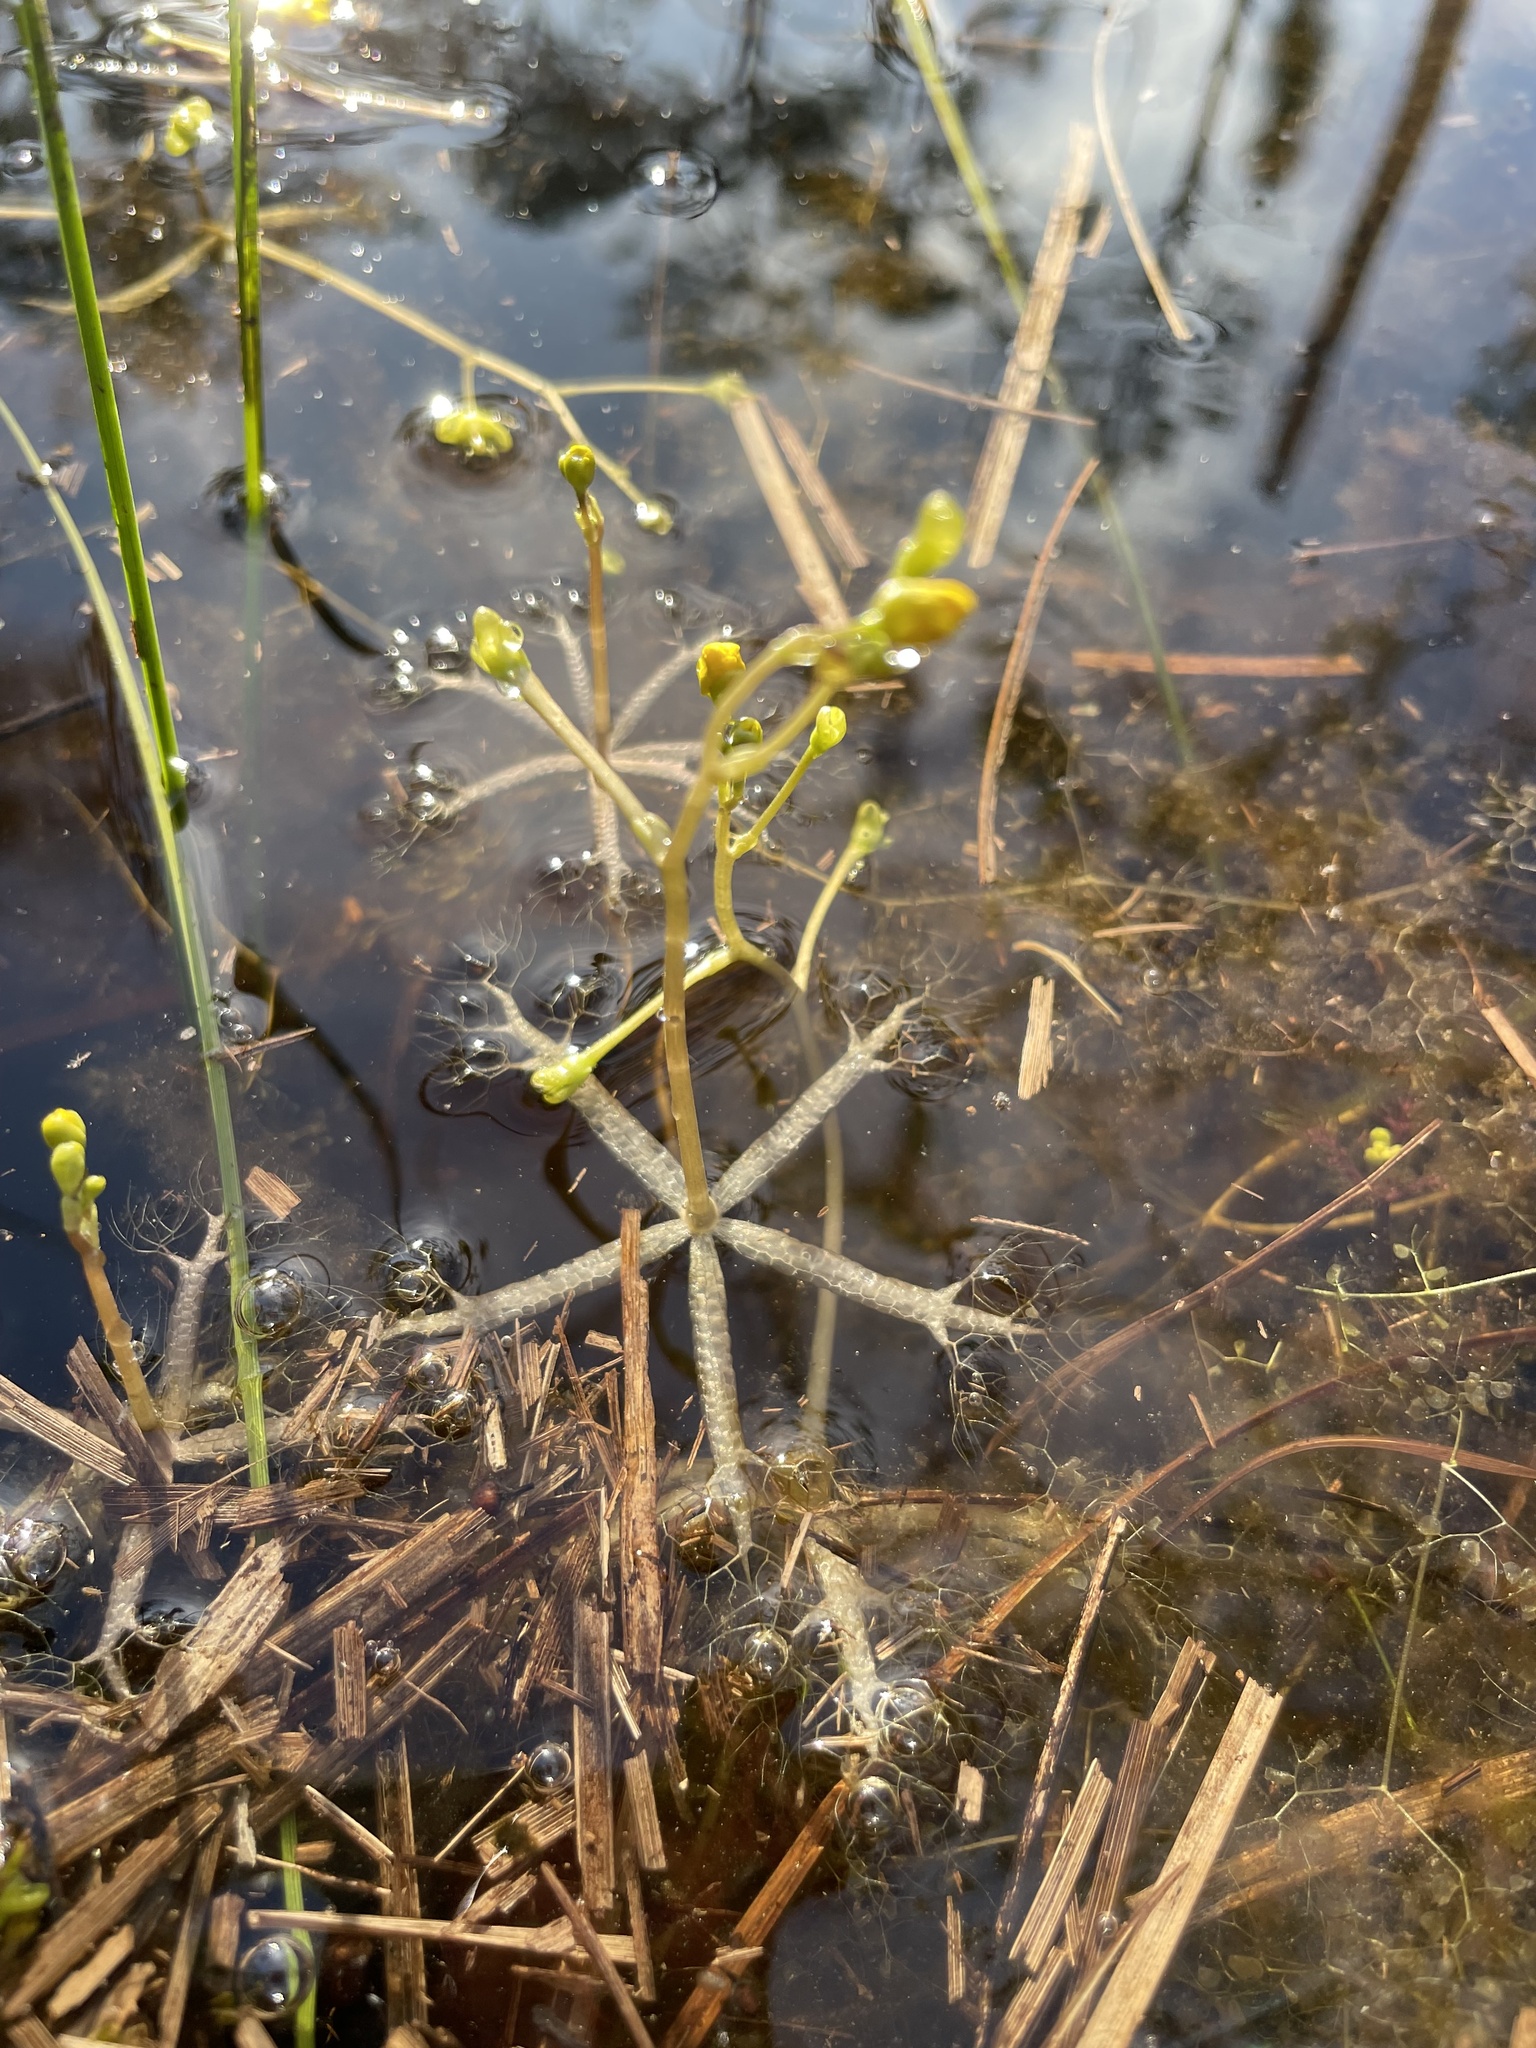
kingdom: Plantae
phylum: Tracheophyta
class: Magnoliopsida
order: Lamiales
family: Lentibulariaceae
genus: Utricularia
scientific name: Utricularia radiata
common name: Floating bladderwort
